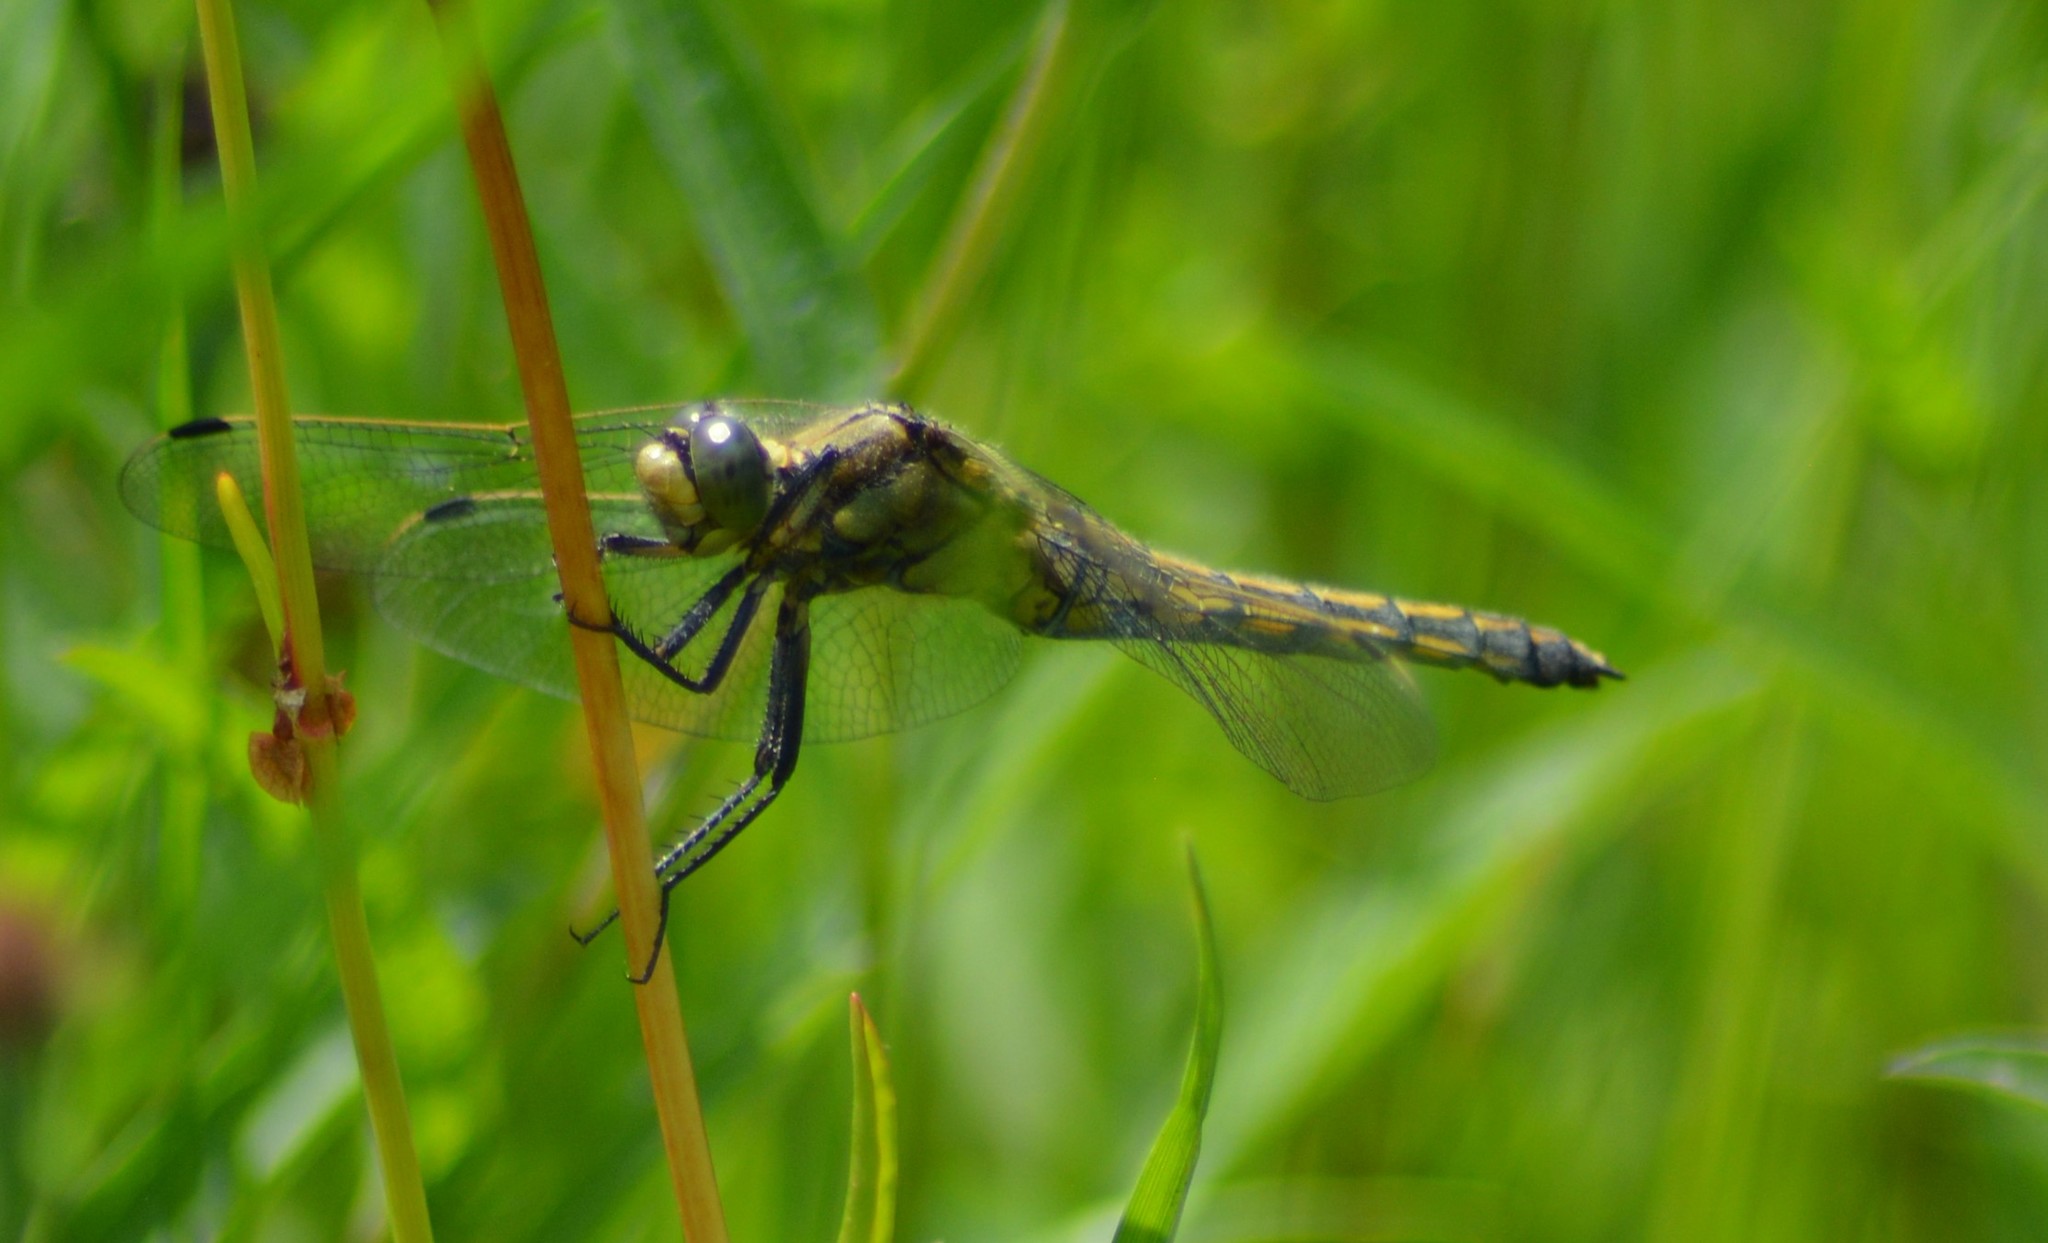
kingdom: Animalia
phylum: Arthropoda
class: Insecta
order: Odonata
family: Libellulidae
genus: Orthetrum
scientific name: Orthetrum cancellatum
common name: Black-tailed skimmer
